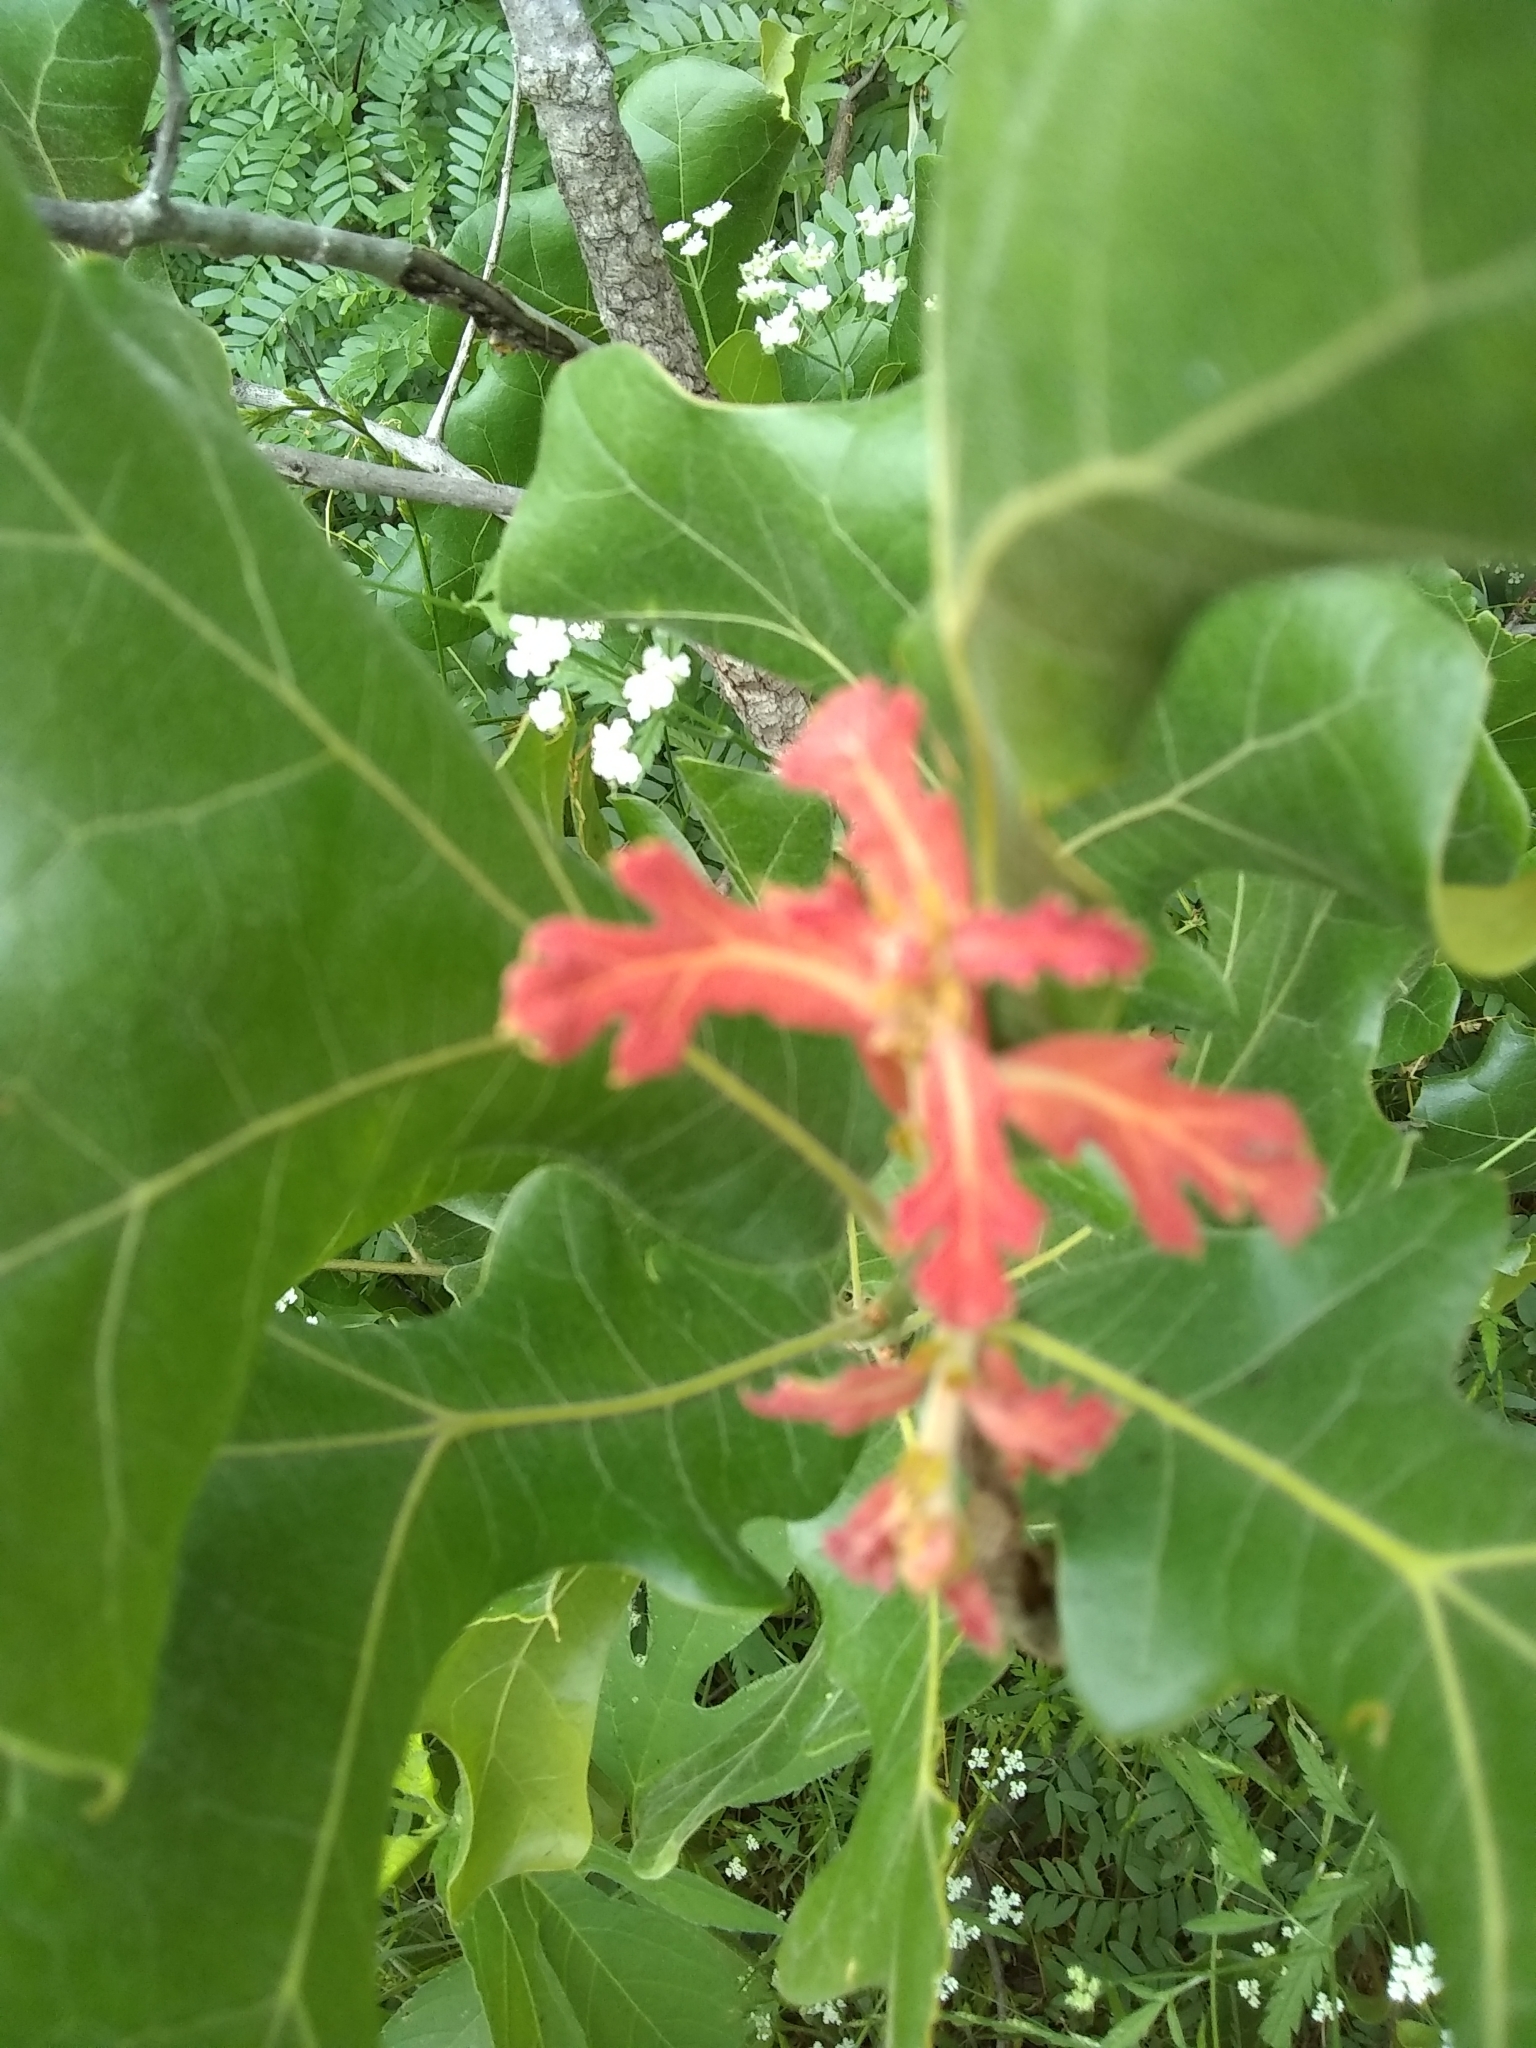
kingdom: Plantae
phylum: Tracheophyta
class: Magnoliopsida
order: Fagales
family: Fagaceae
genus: Quercus
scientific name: Quercus marilandica
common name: Blackjack oak
